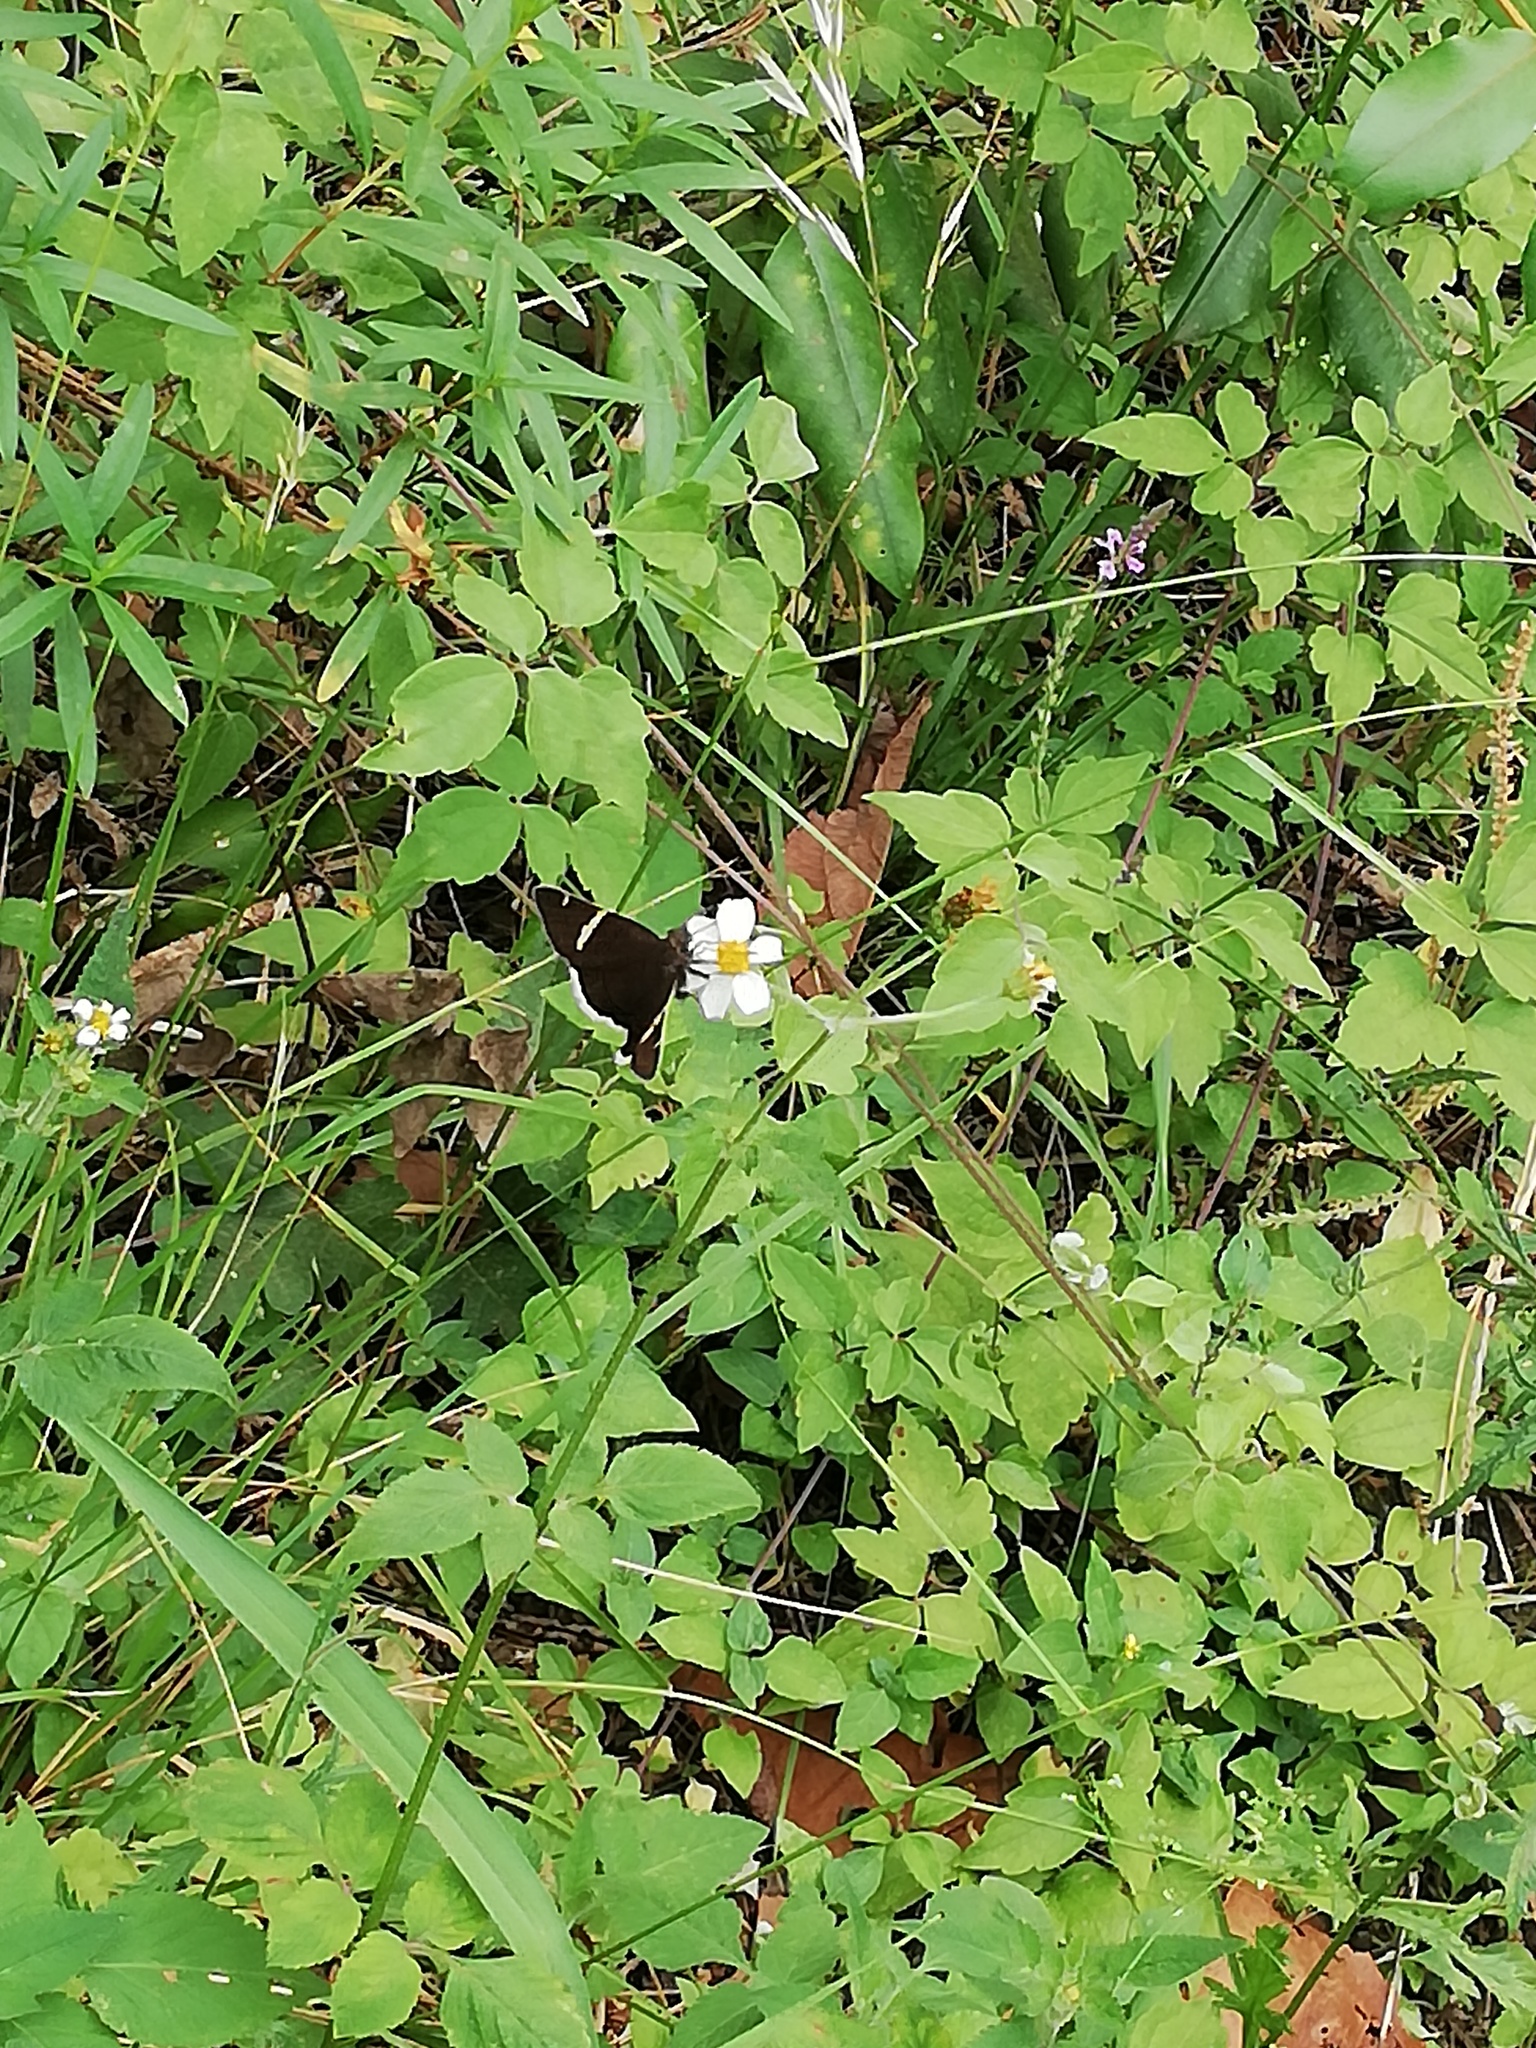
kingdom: Animalia
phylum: Arthropoda
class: Insecta
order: Lepidoptera
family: Hesperiidae
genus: Thorybes
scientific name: Thorybes cincta
